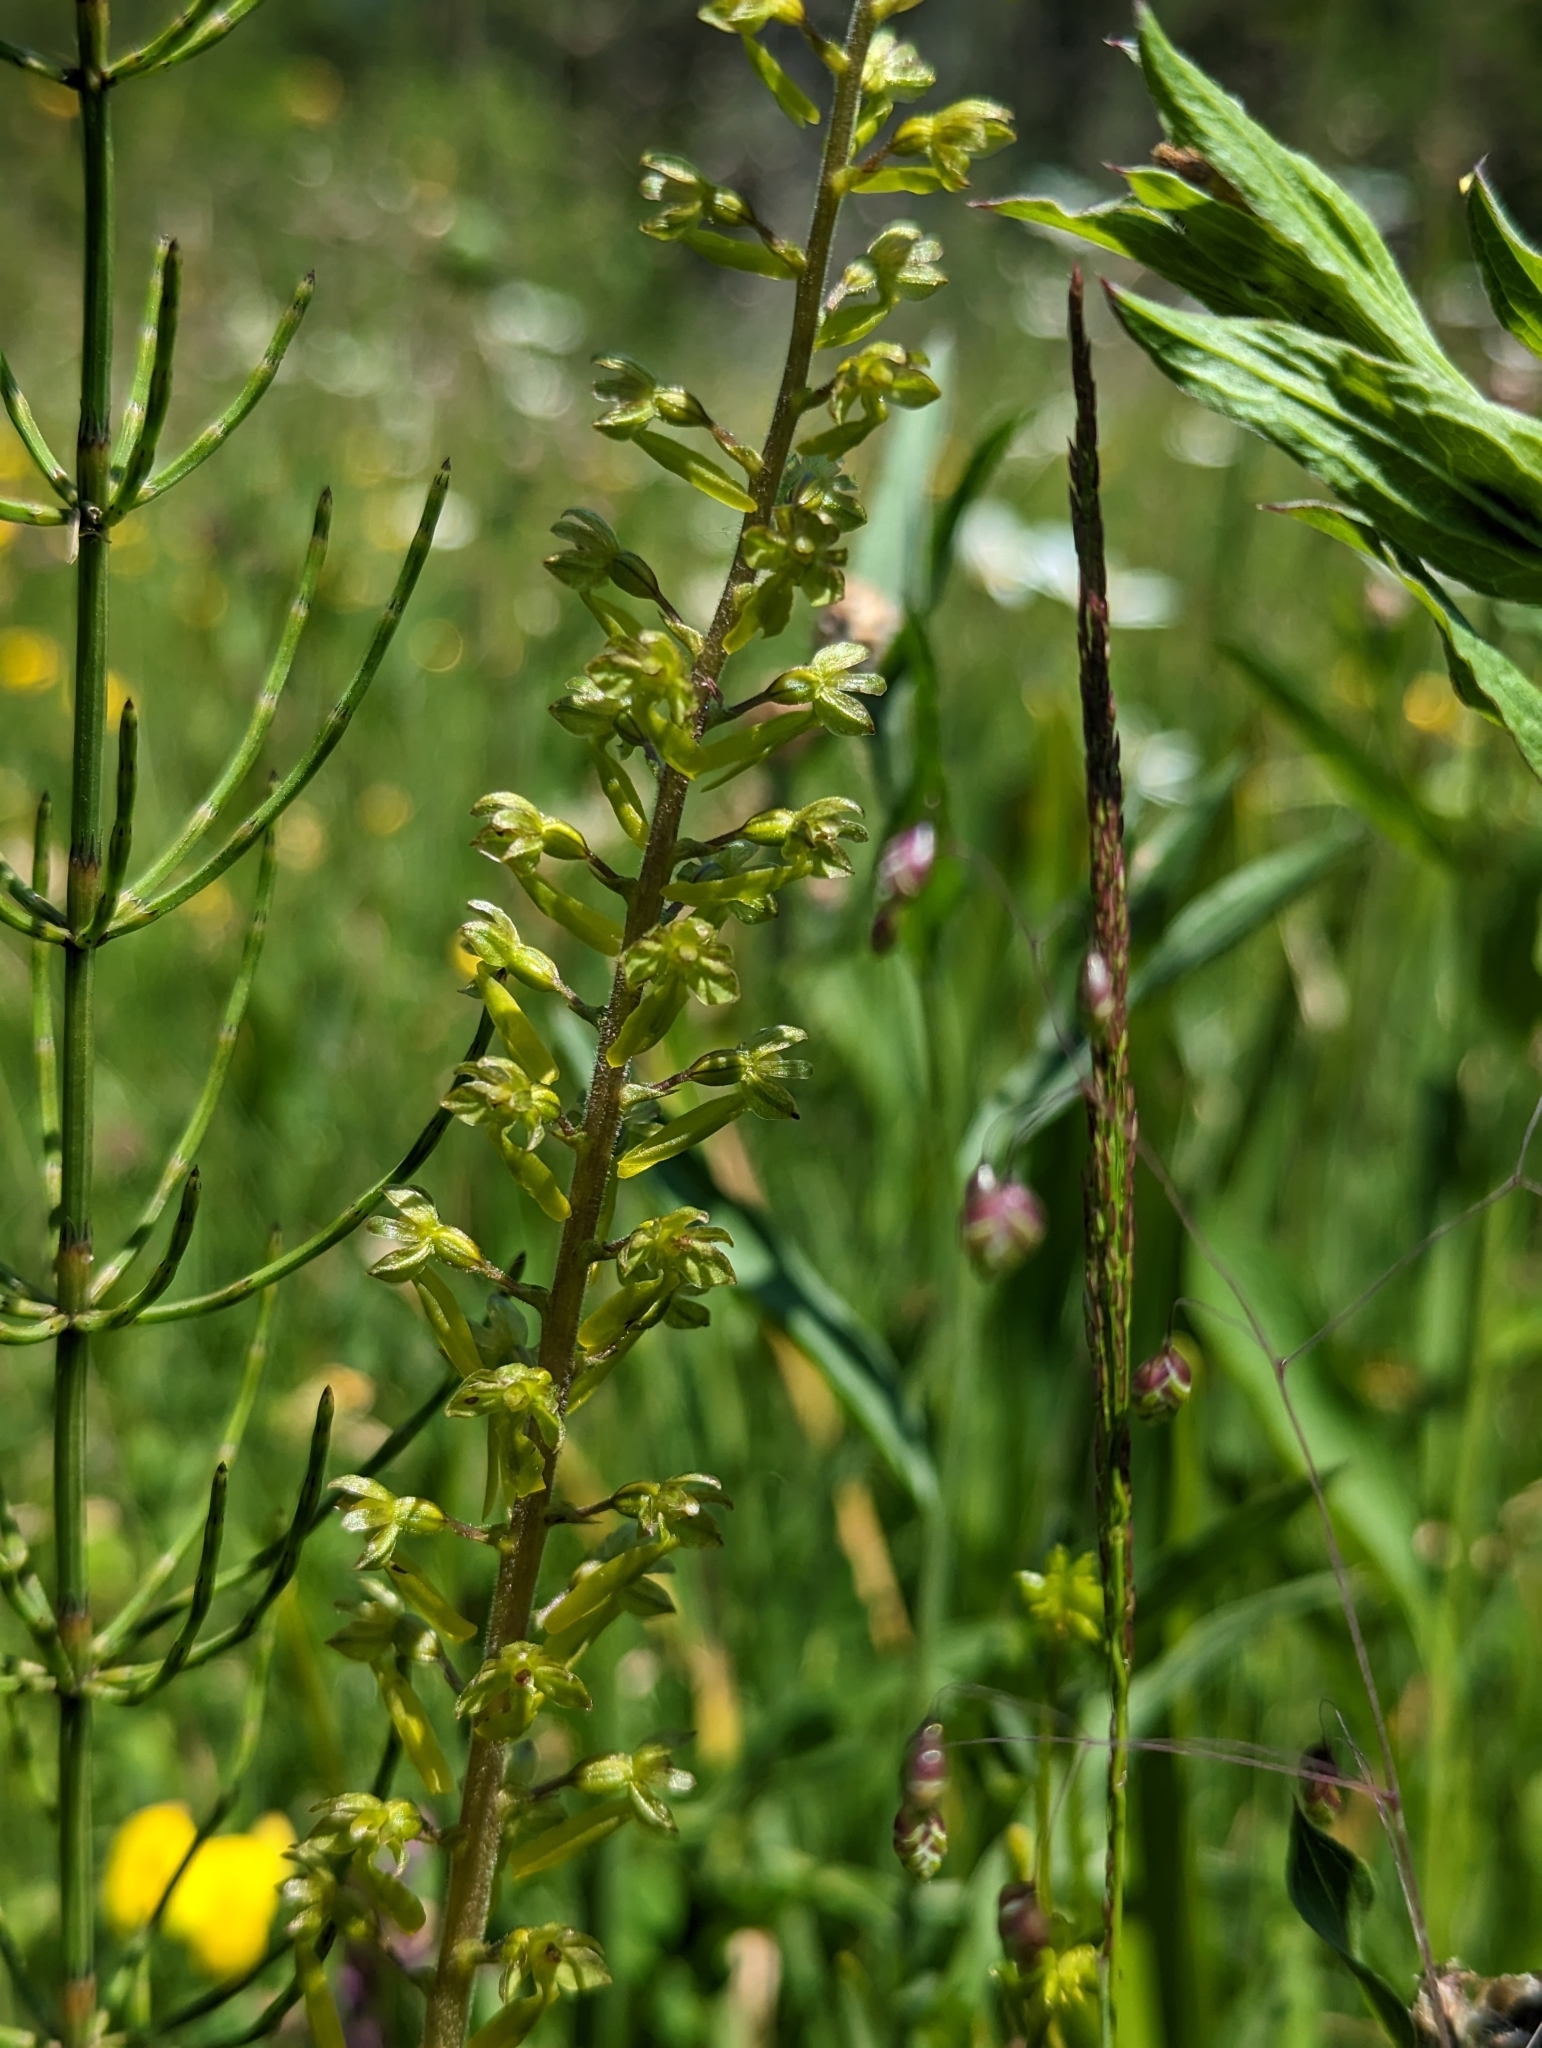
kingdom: Plantae
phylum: Tracheophyta
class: Liliopsida
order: Asparagales
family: Orchidaceae
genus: Neottia
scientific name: Neottia ovata
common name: Common twayblade
